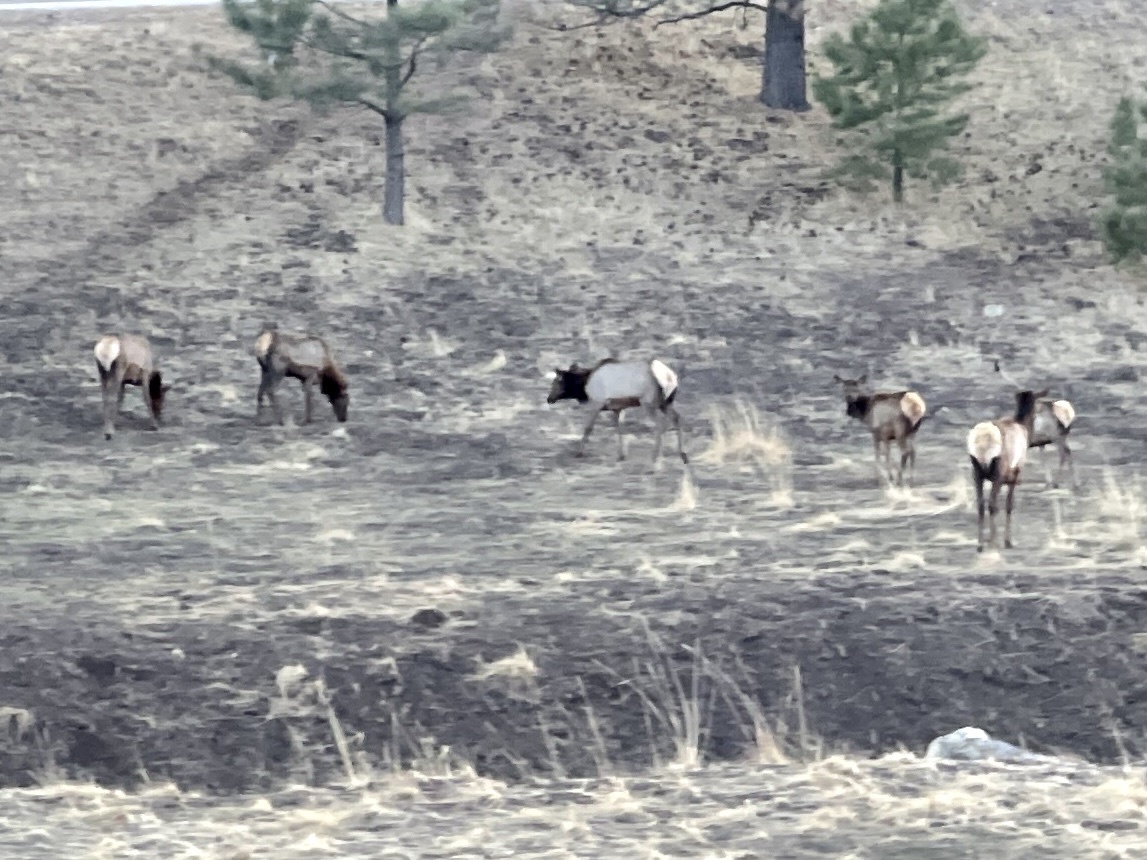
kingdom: Animalia
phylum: Chordata
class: Mammalia
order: Artiodactyla
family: Cervidae
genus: Cervus
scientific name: Cervus elaphus
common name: Red deer
